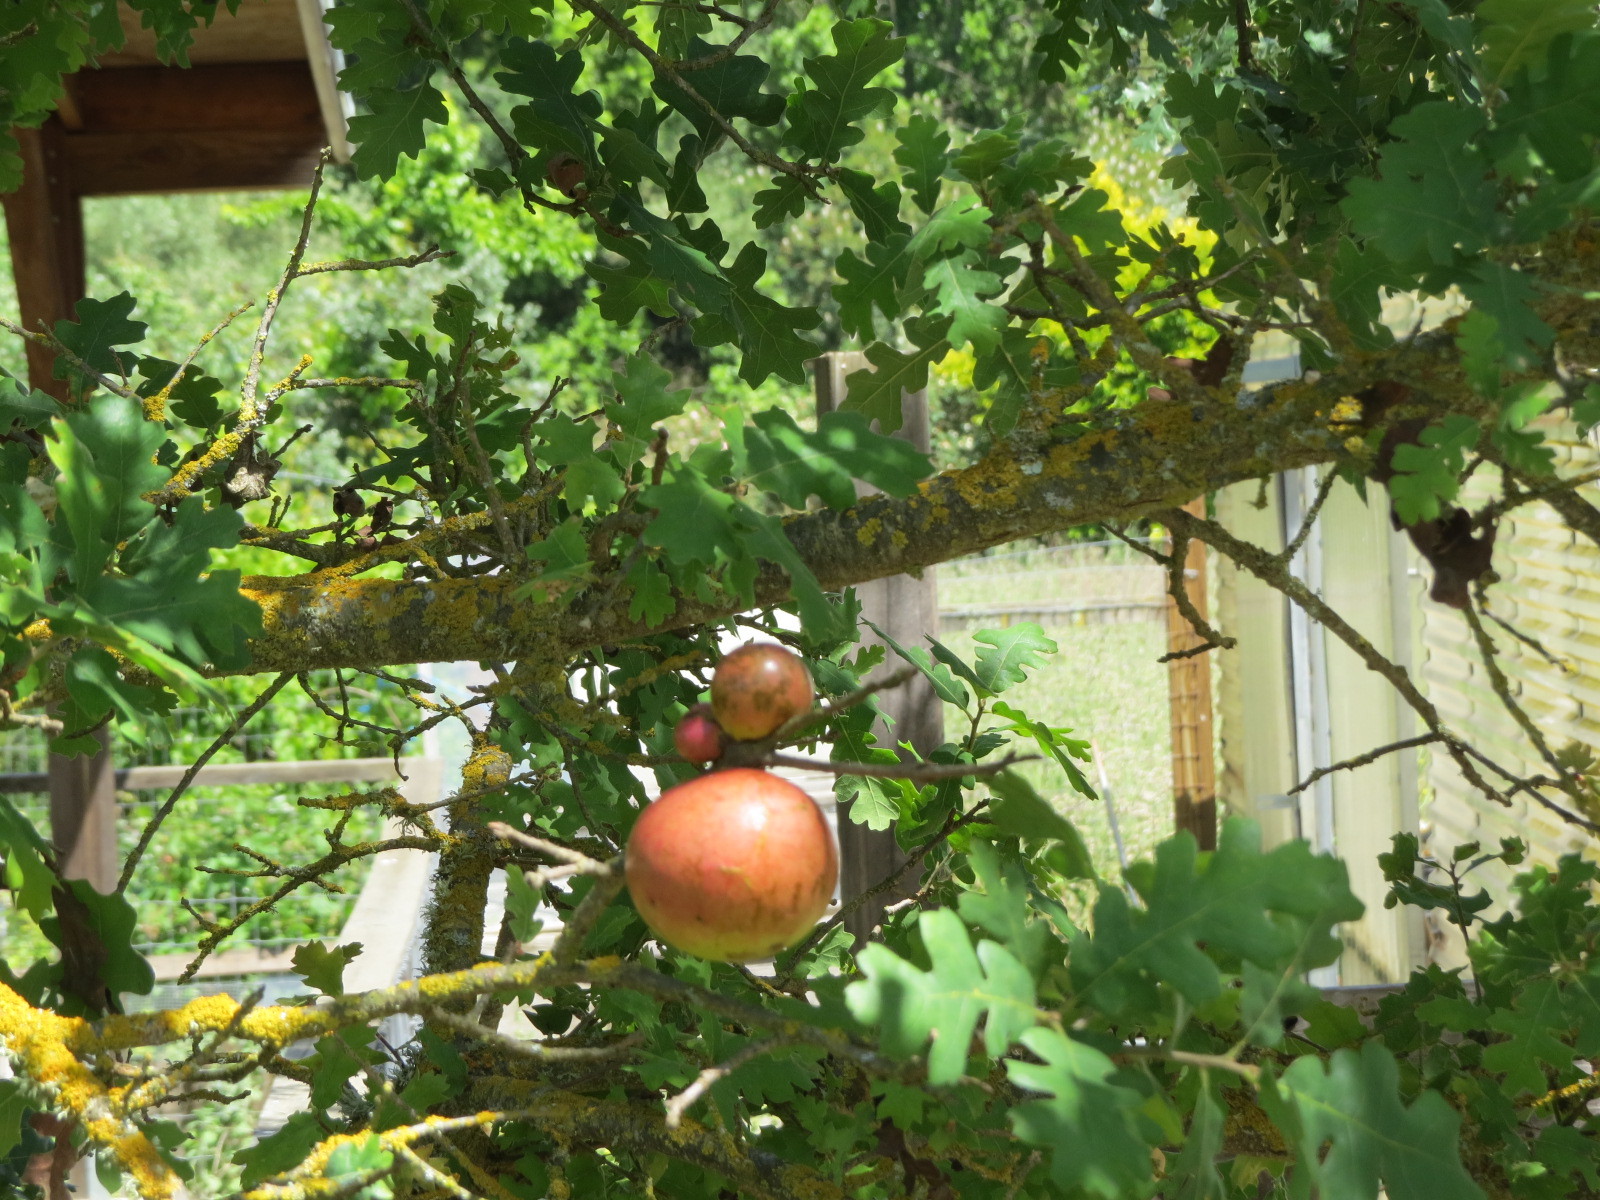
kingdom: Animalia
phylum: Arthropoda
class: Insecta
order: Hymenoptera
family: Cynipidae
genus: Andricus
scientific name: Andricus quercuscalifornicus
